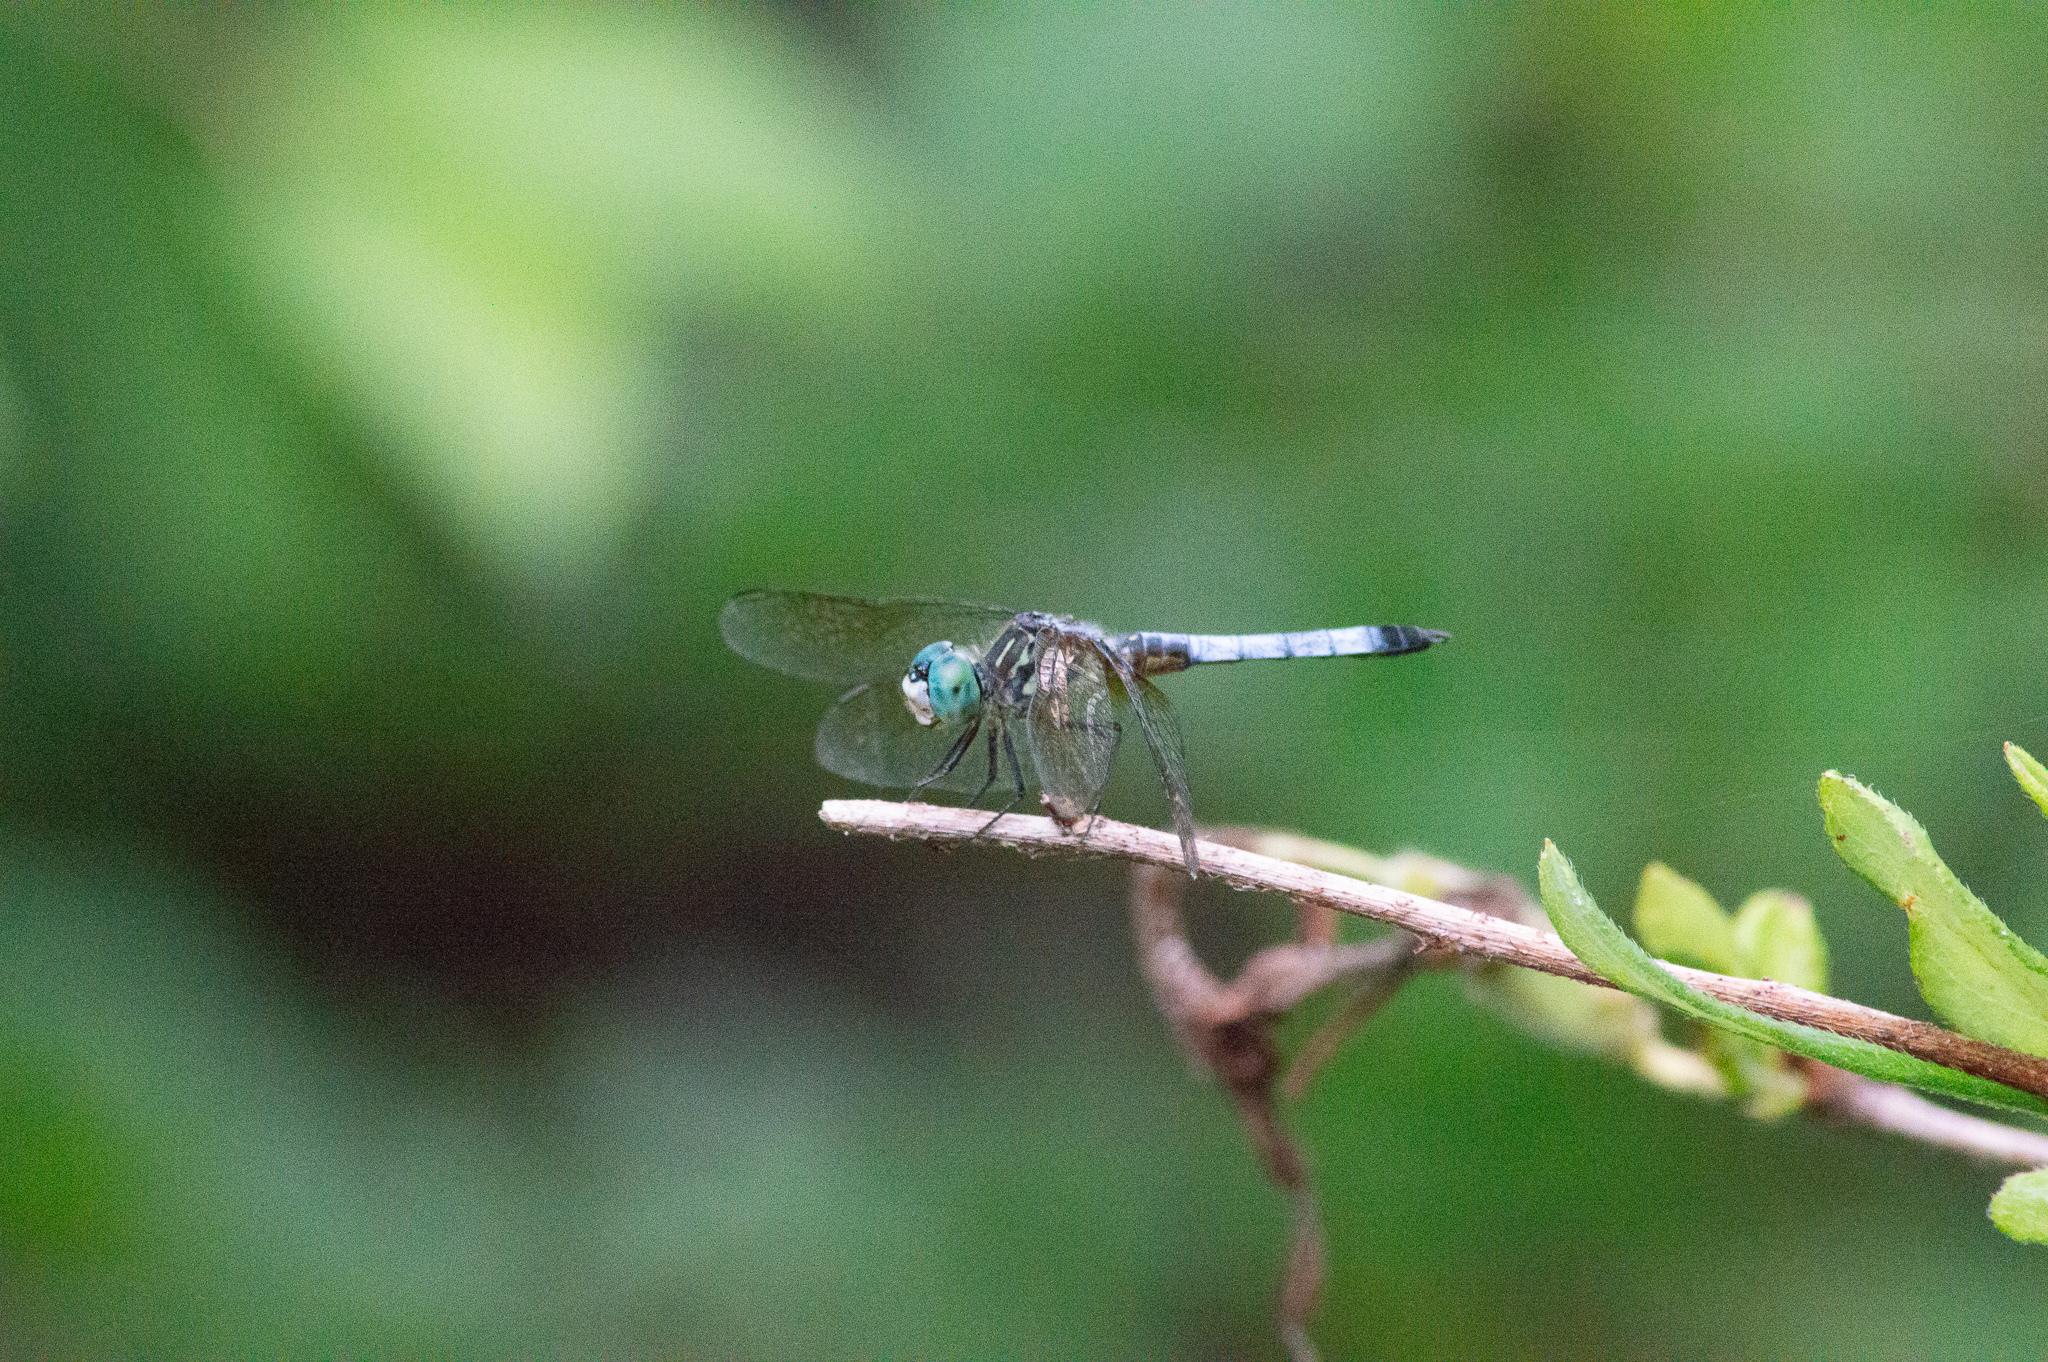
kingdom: Animalia
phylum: Arthropoda
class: Insecta
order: Odonata
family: Libellulidae
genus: Pachydiplax
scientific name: Pachydiplax longipennis
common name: Blue dasher
